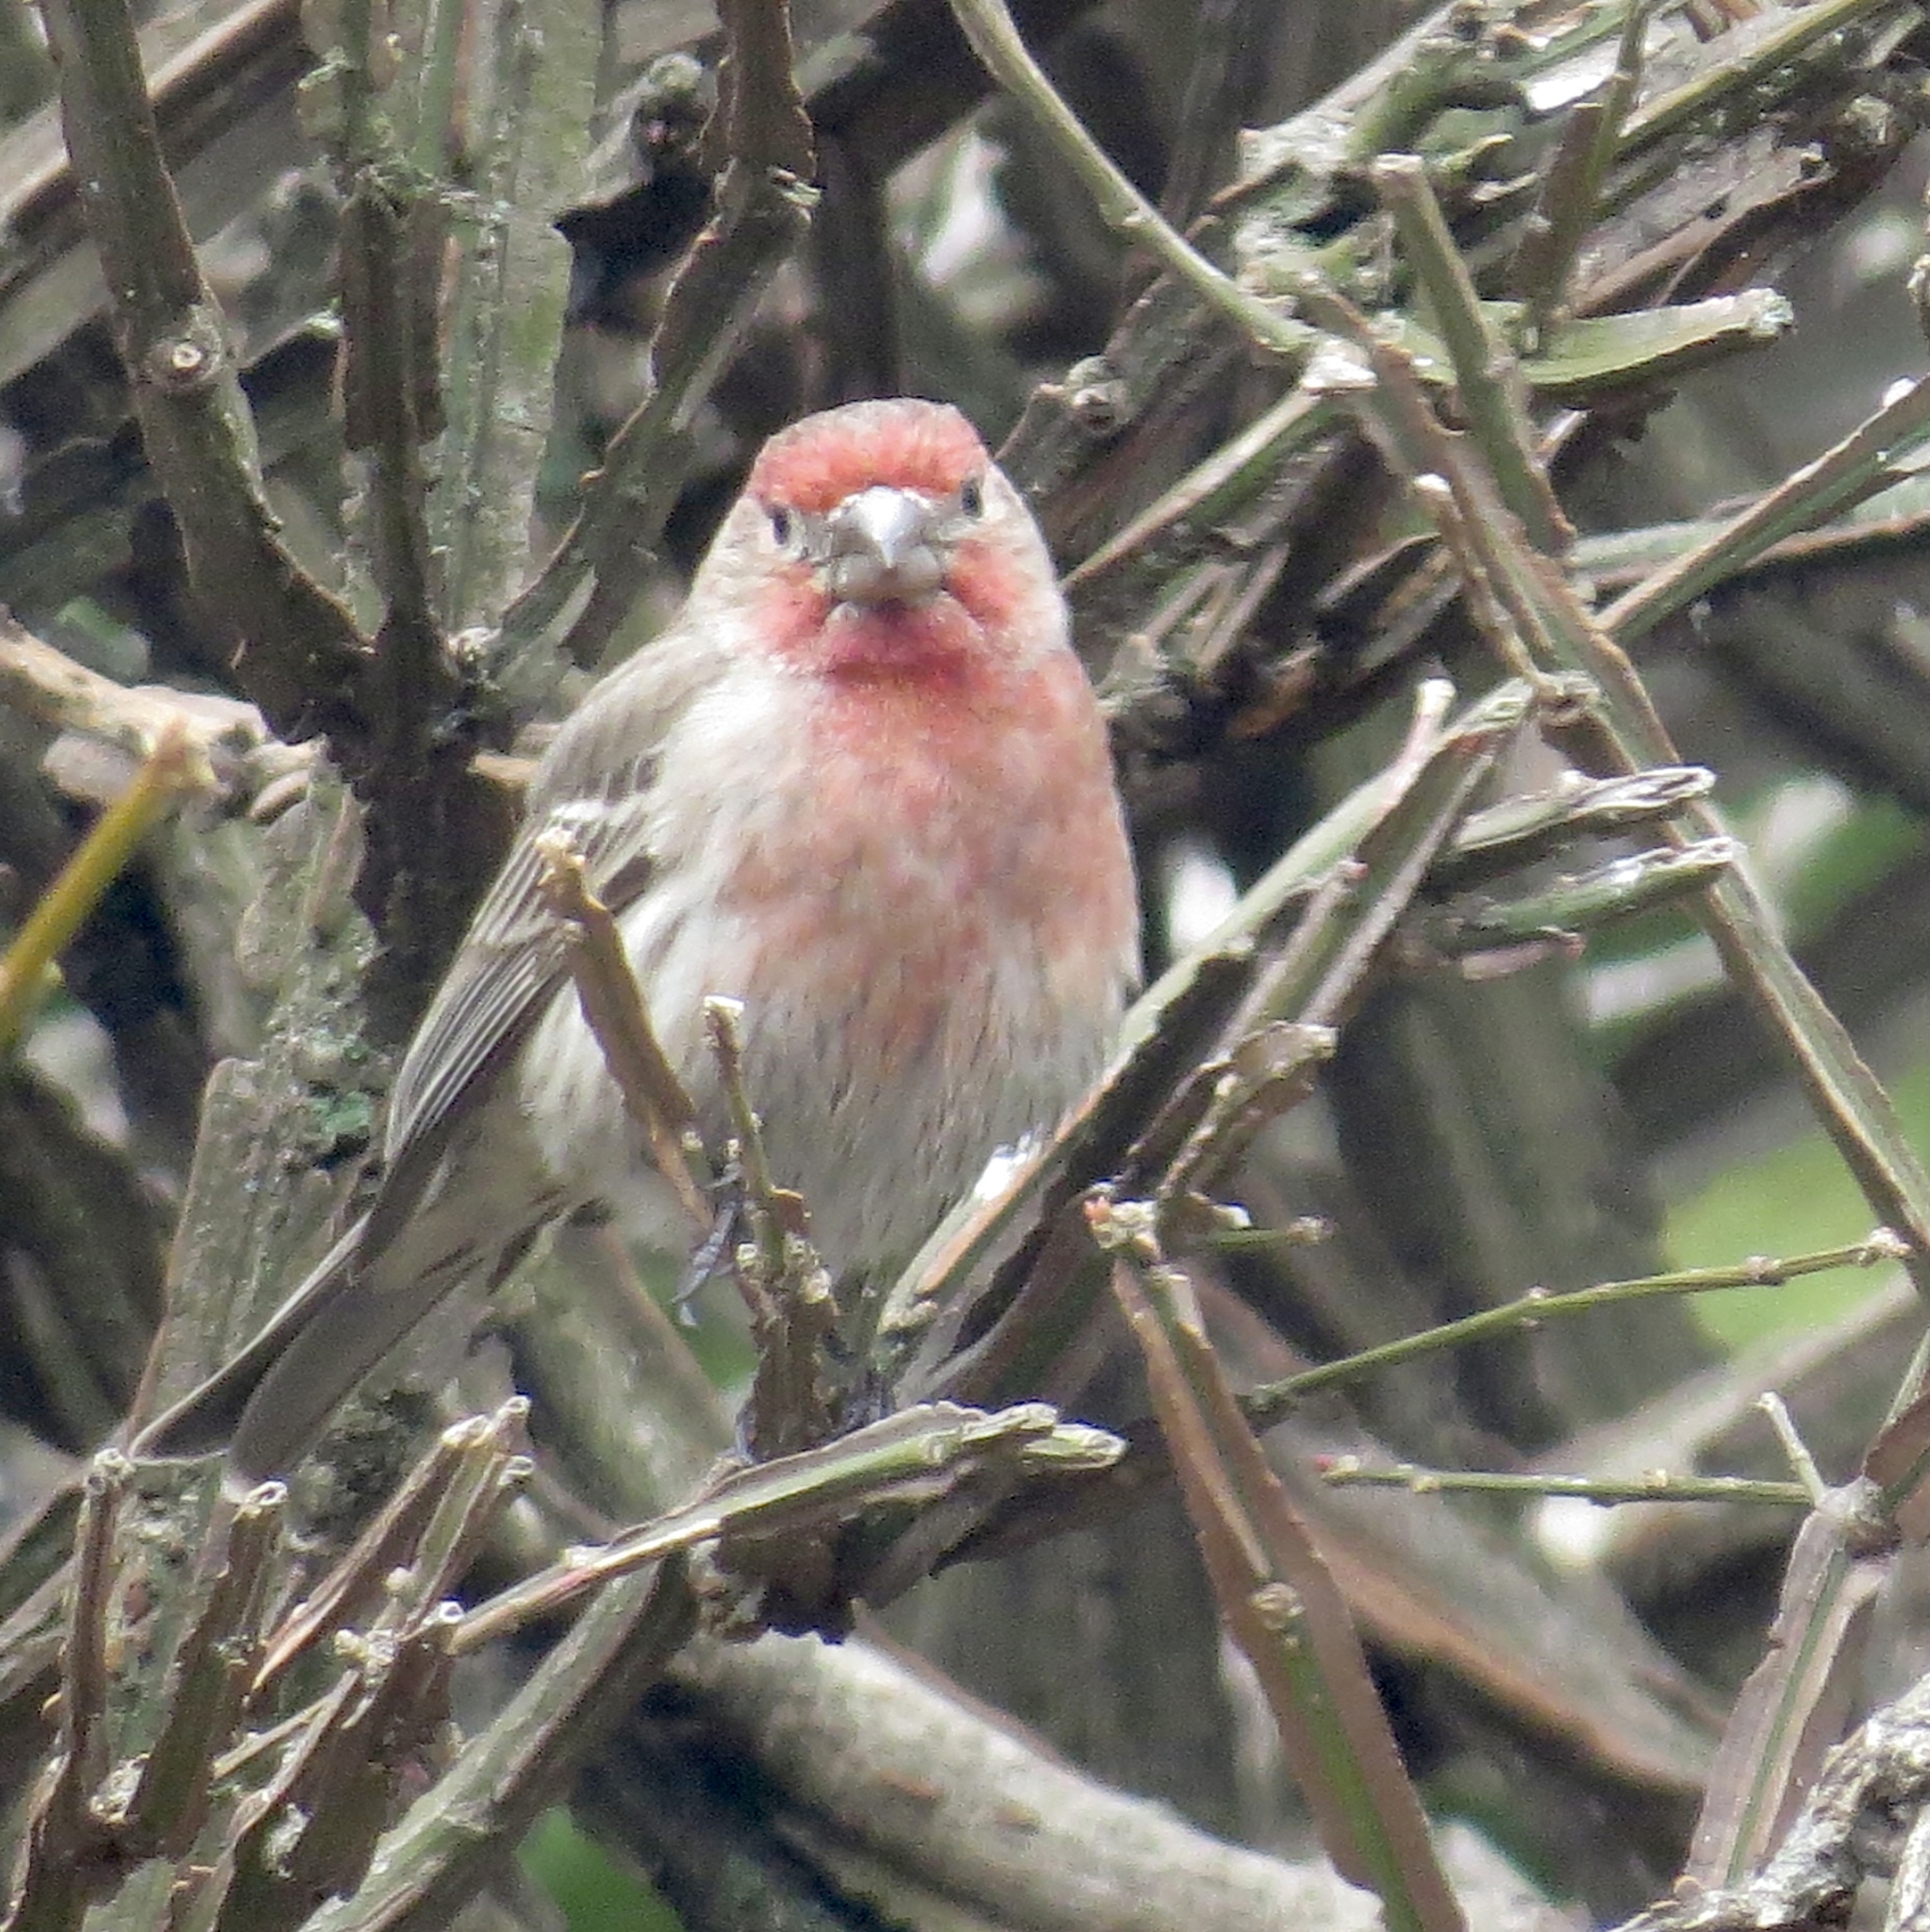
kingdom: Animalia
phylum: Chordata
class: Aves
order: Passeriformes
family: Fringillidae
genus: Haemorhous
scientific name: Haemorhous mexicanus
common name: House finch
